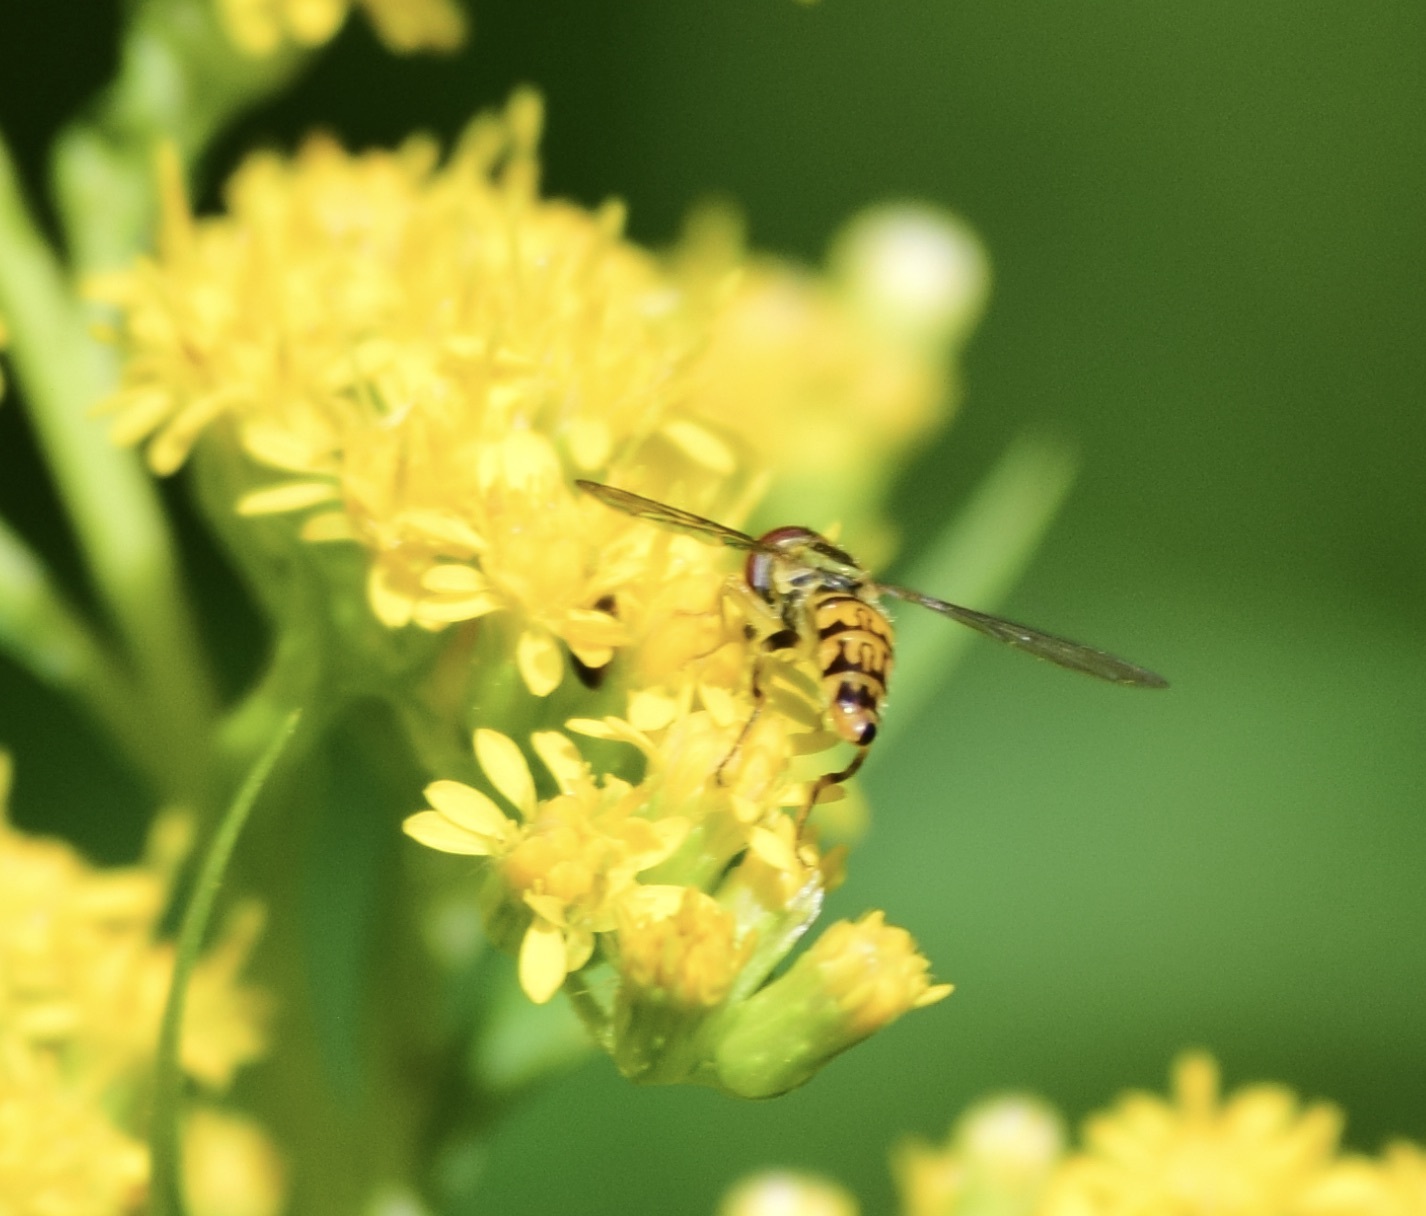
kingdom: Animalia
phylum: Arthropoda
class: Insecta
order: Diptera
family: Syrphidae
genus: Toxomerus
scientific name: Toxomerus geminatus
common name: Eastern calligrapher
